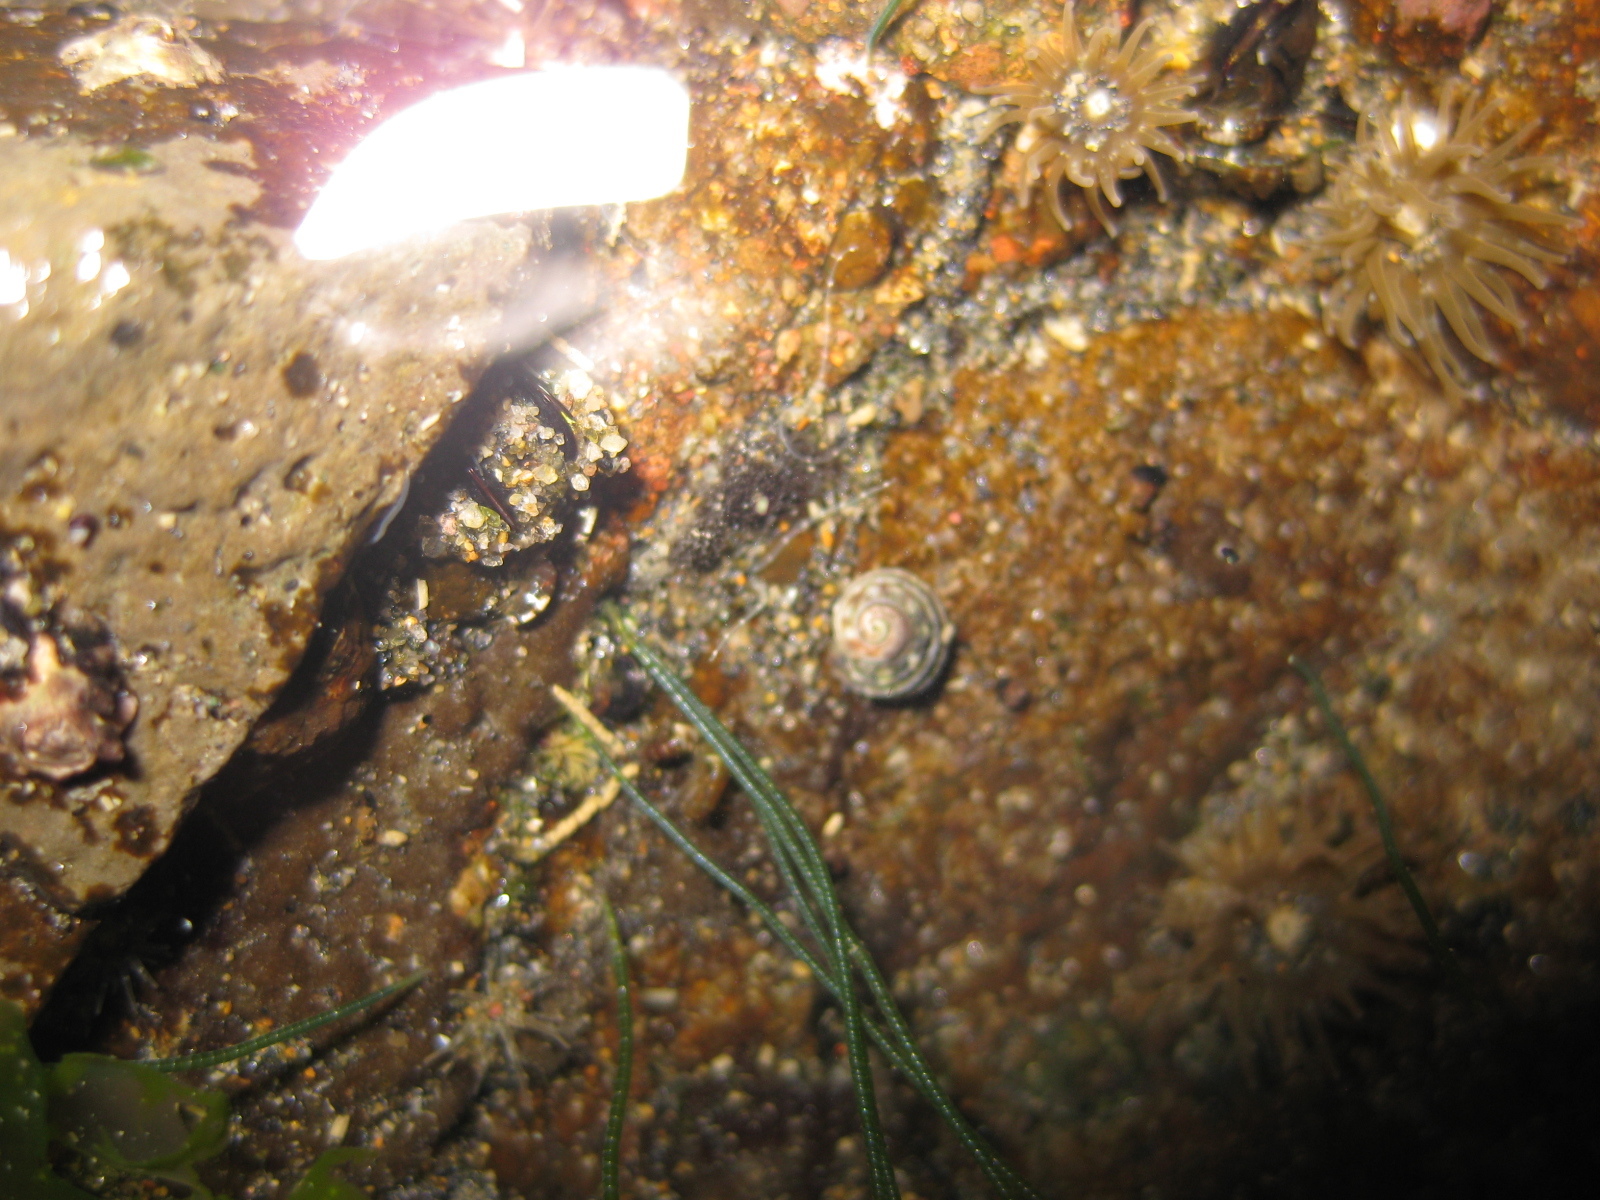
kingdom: Animalia
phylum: Mollusca
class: Gastropoda
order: Littorinimorpha
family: Littorinidae
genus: Risellopsis
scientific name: Risellopsis varia
